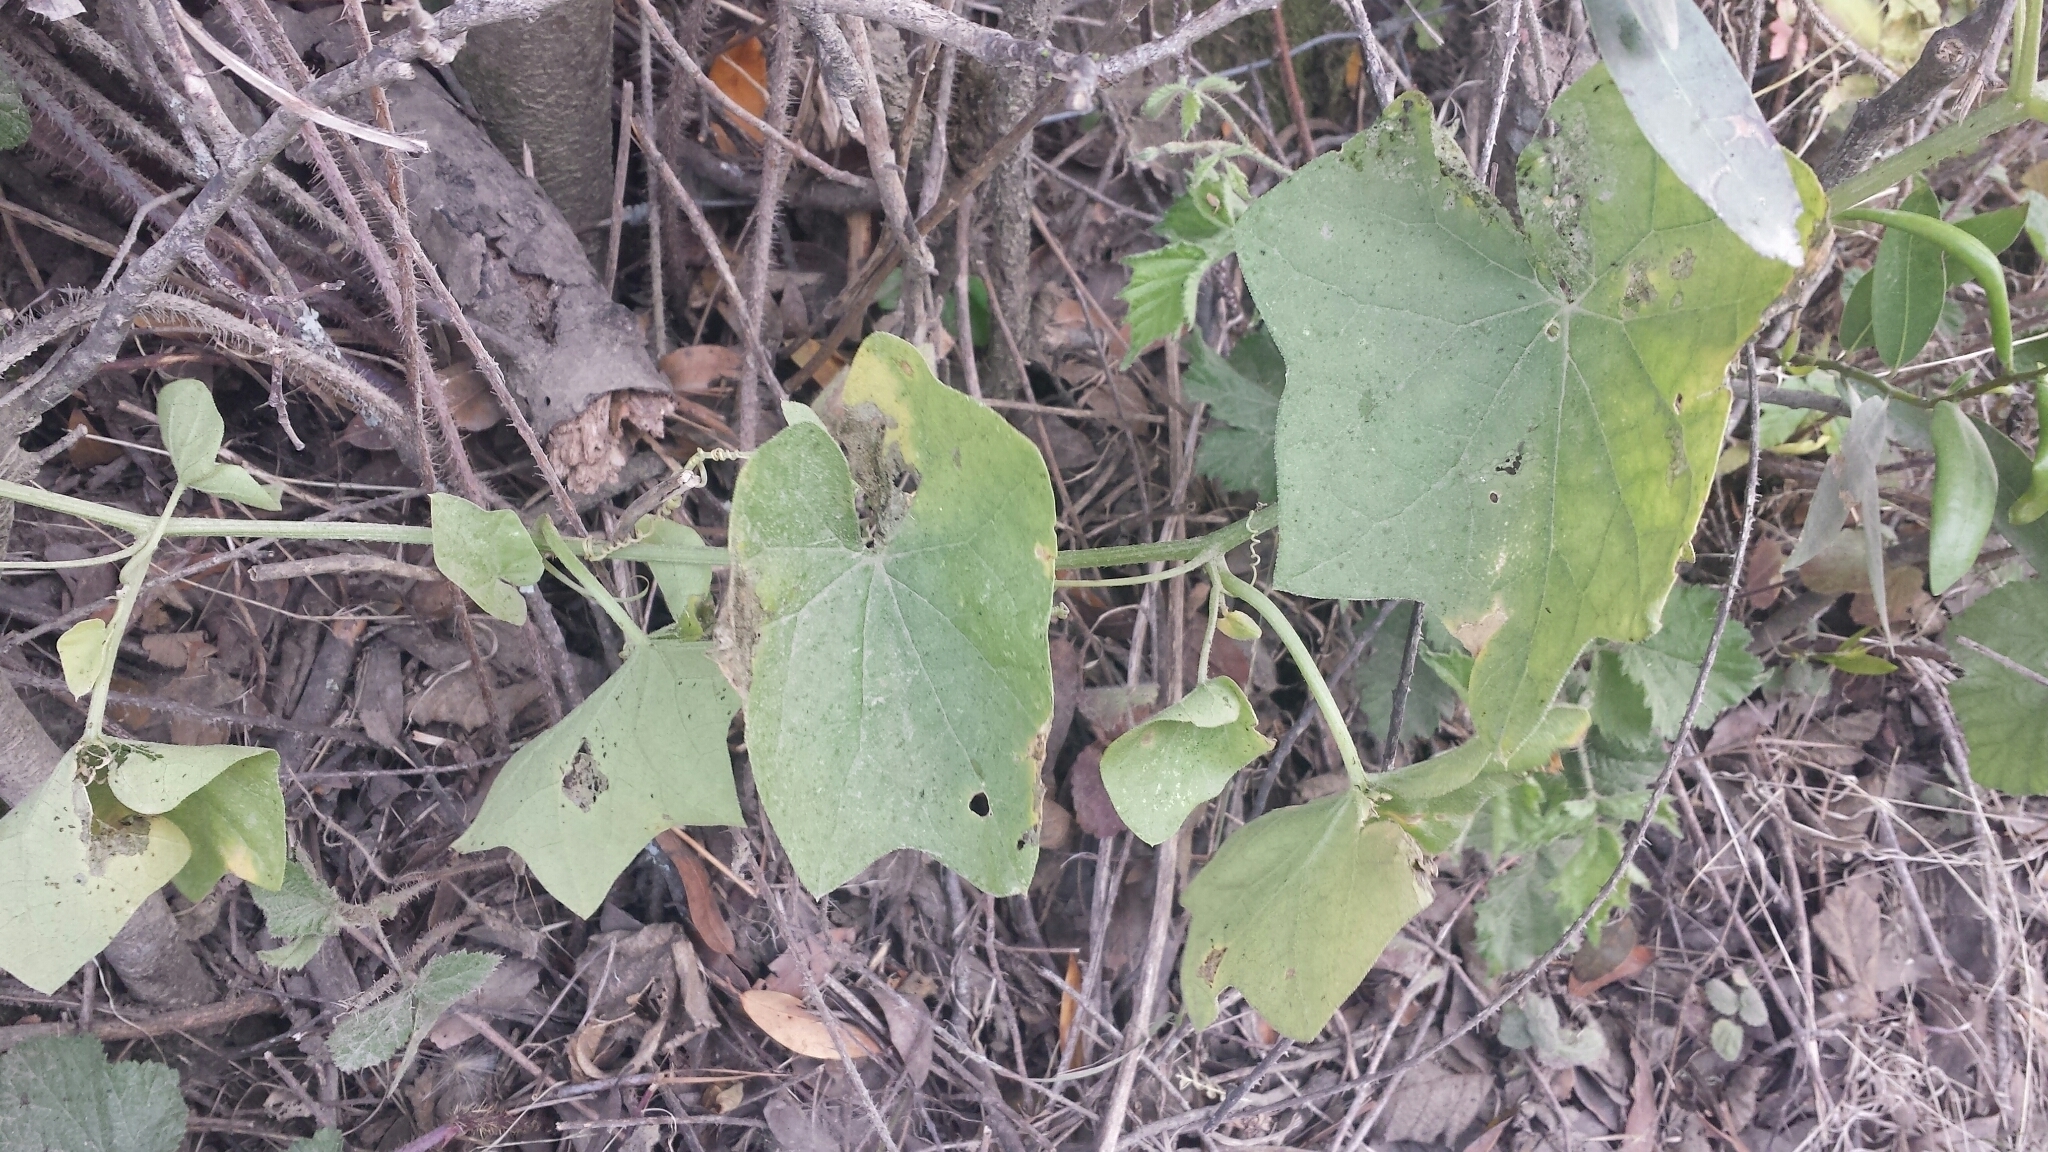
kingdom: Plantae
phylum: Tracheophyta
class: Magnoliopsida
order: Cucurbitales
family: Cucurbitaceae
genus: Marah
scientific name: Marah fabacea
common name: California manroot
